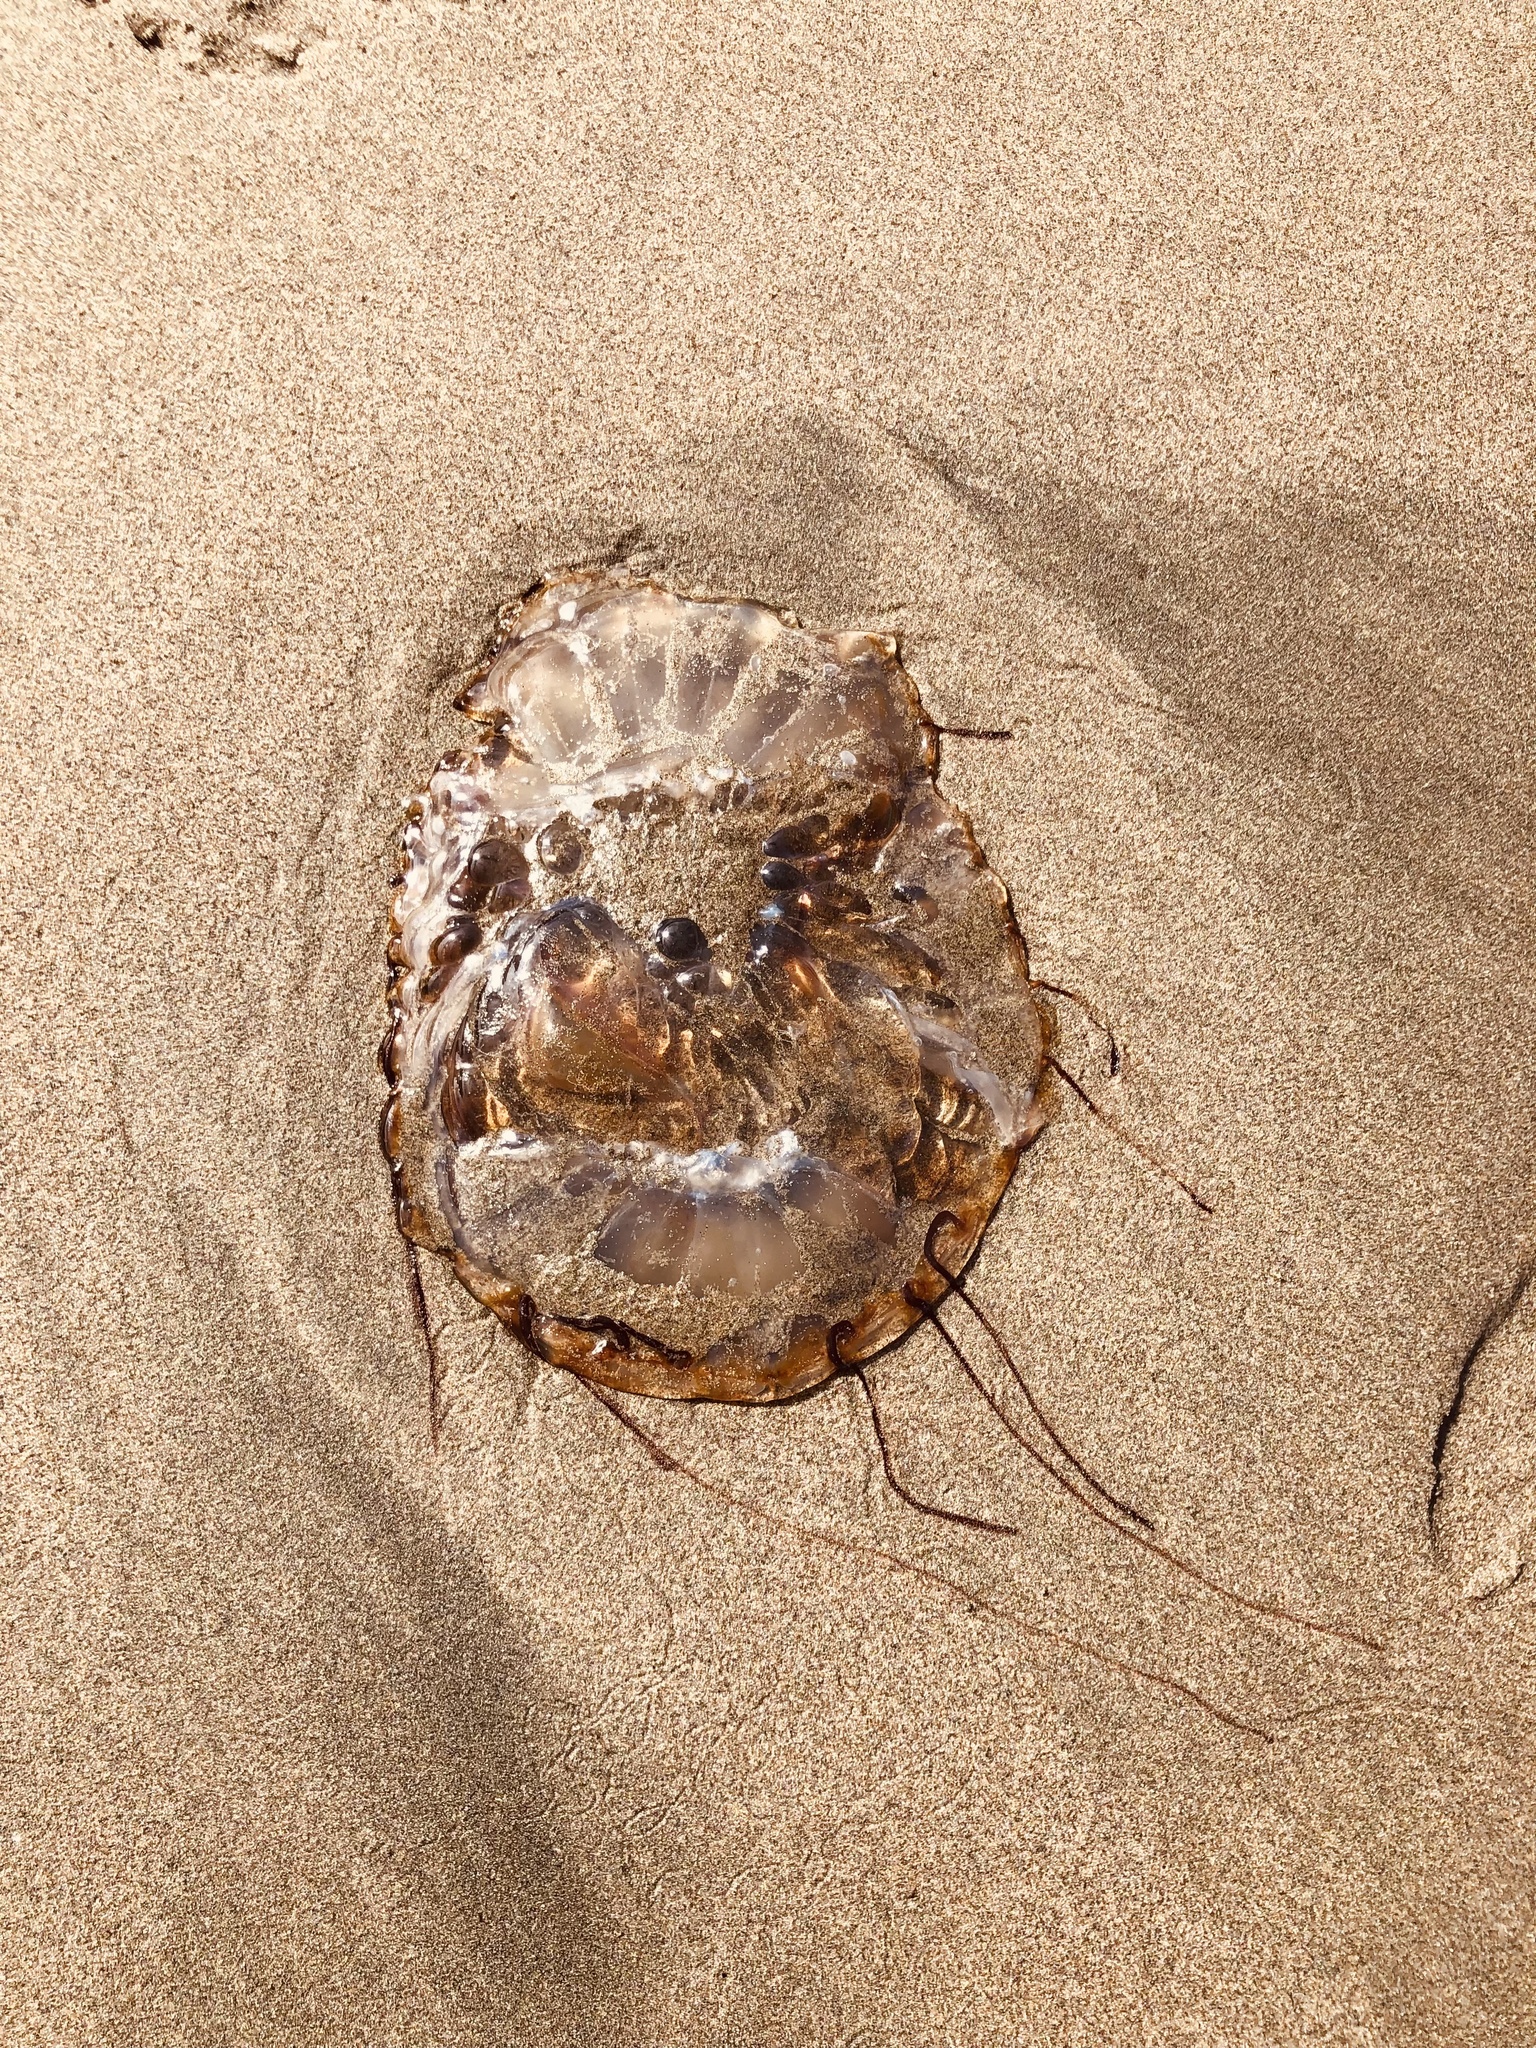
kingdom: Animalia
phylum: Cnidaria
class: Scyphozoa
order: Semaeostomeae
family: Pelagiidae
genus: Chrysaora
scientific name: Chrysaora fuscescens
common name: Sea nettle
